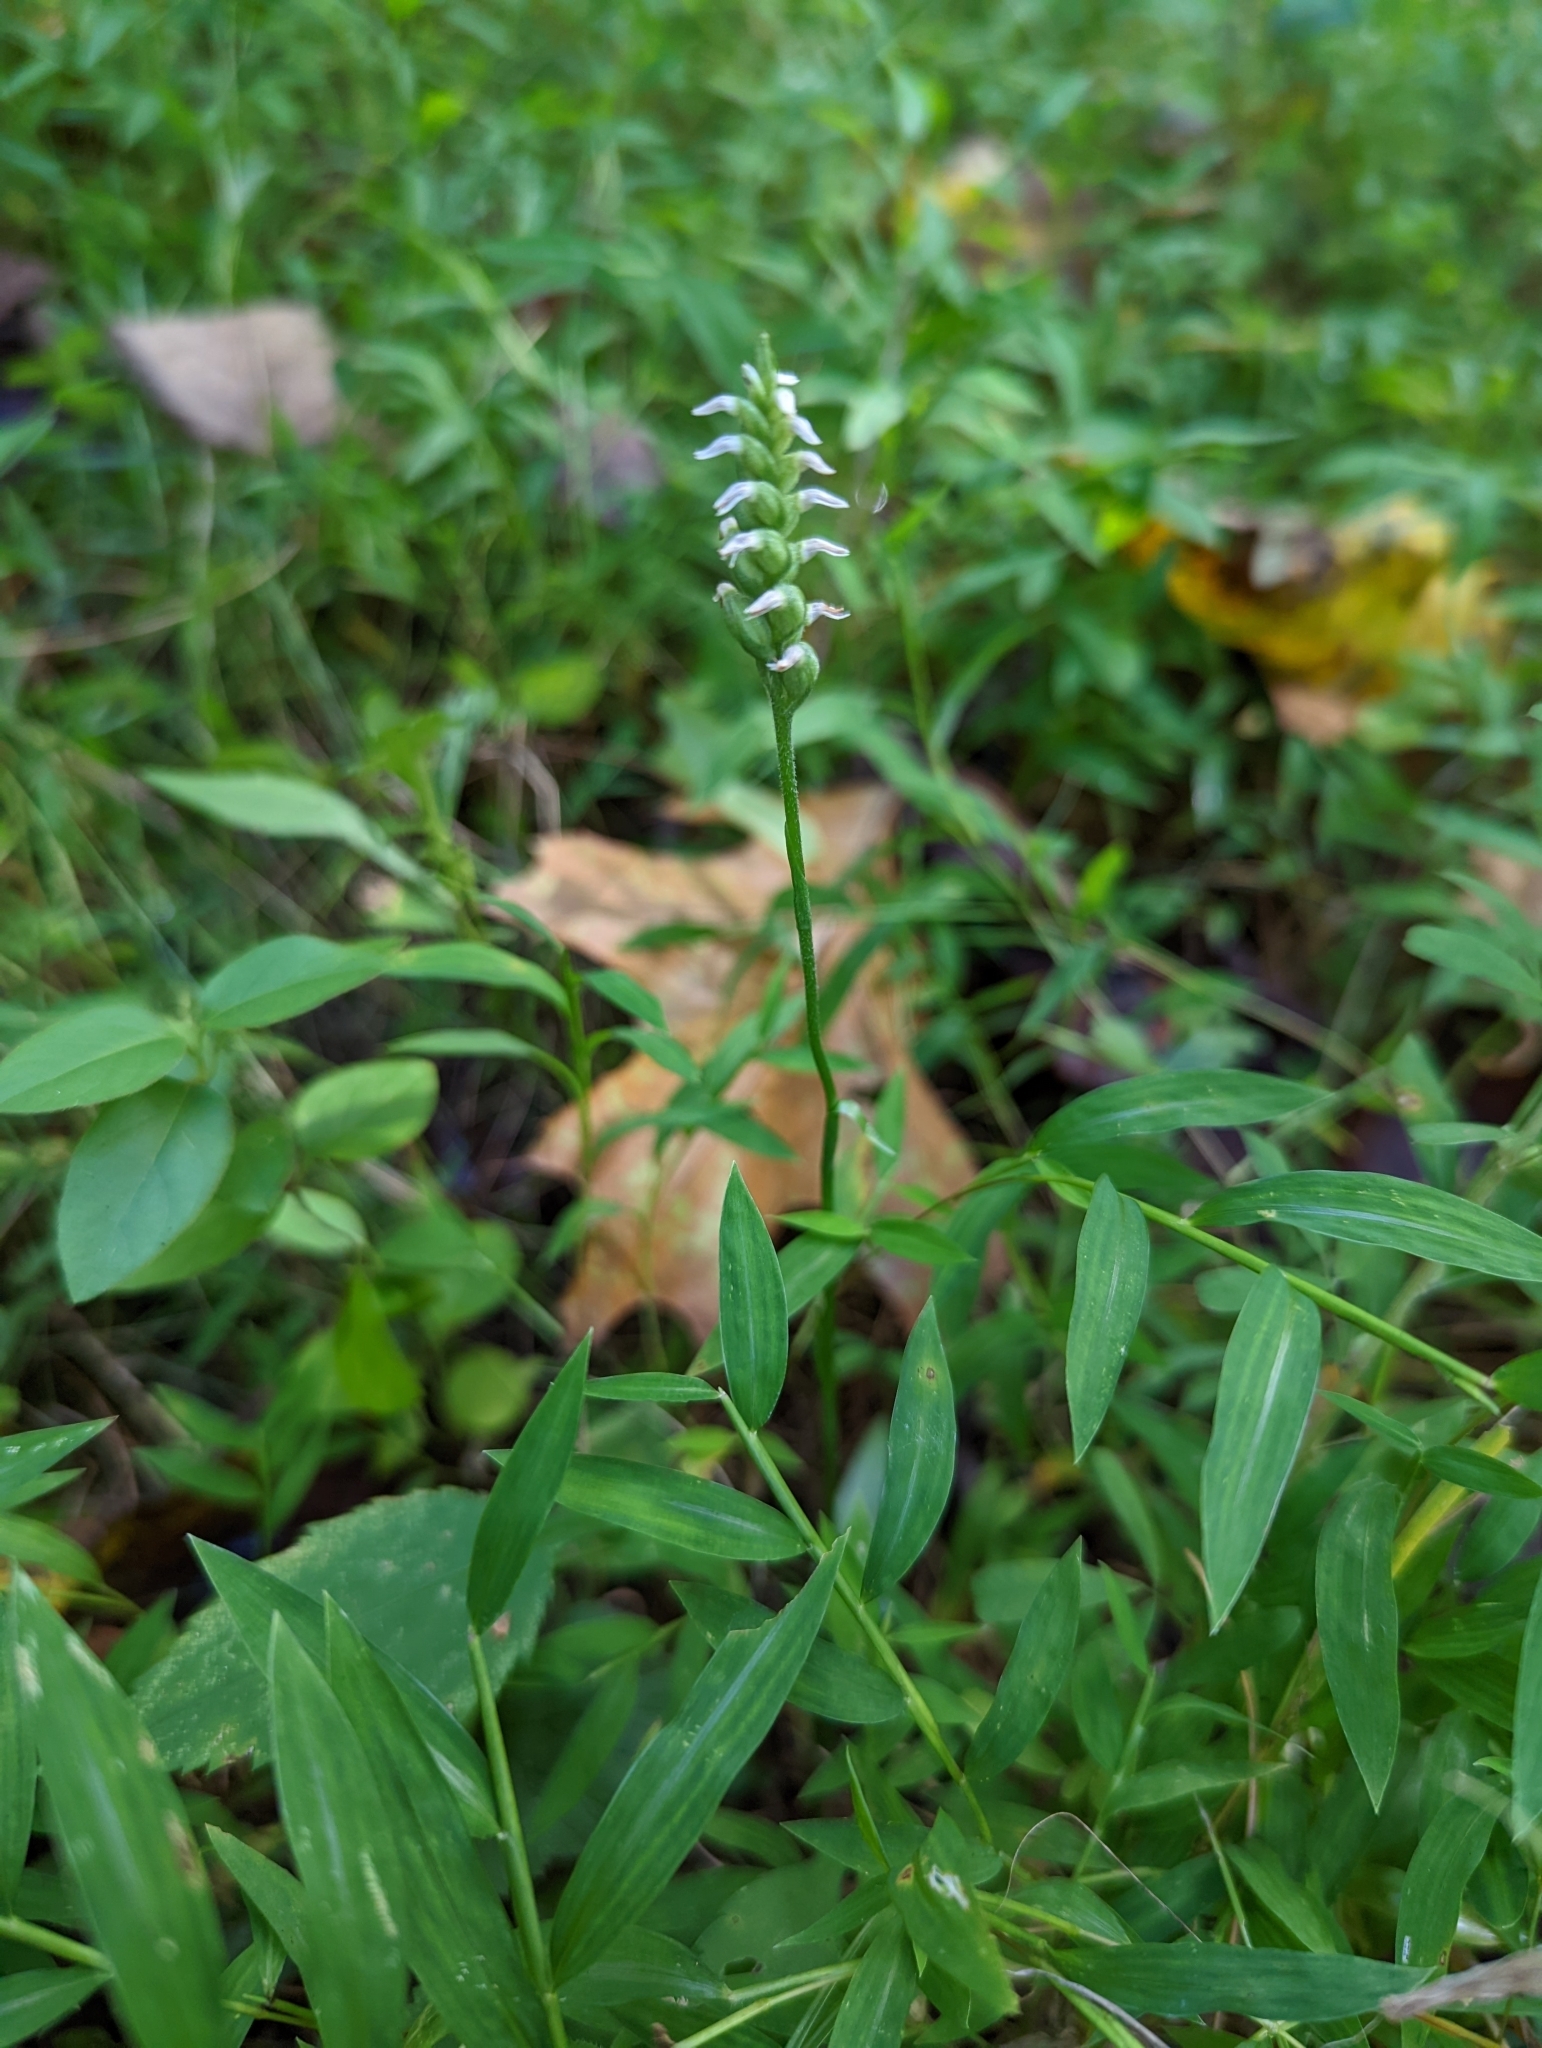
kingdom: Plantae
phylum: Tracheophyta
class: Liliopsida
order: Asparagales
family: Orchidaceae
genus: Spiranthes
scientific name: Spiranthes ovalis
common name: October ladies'-tresses
